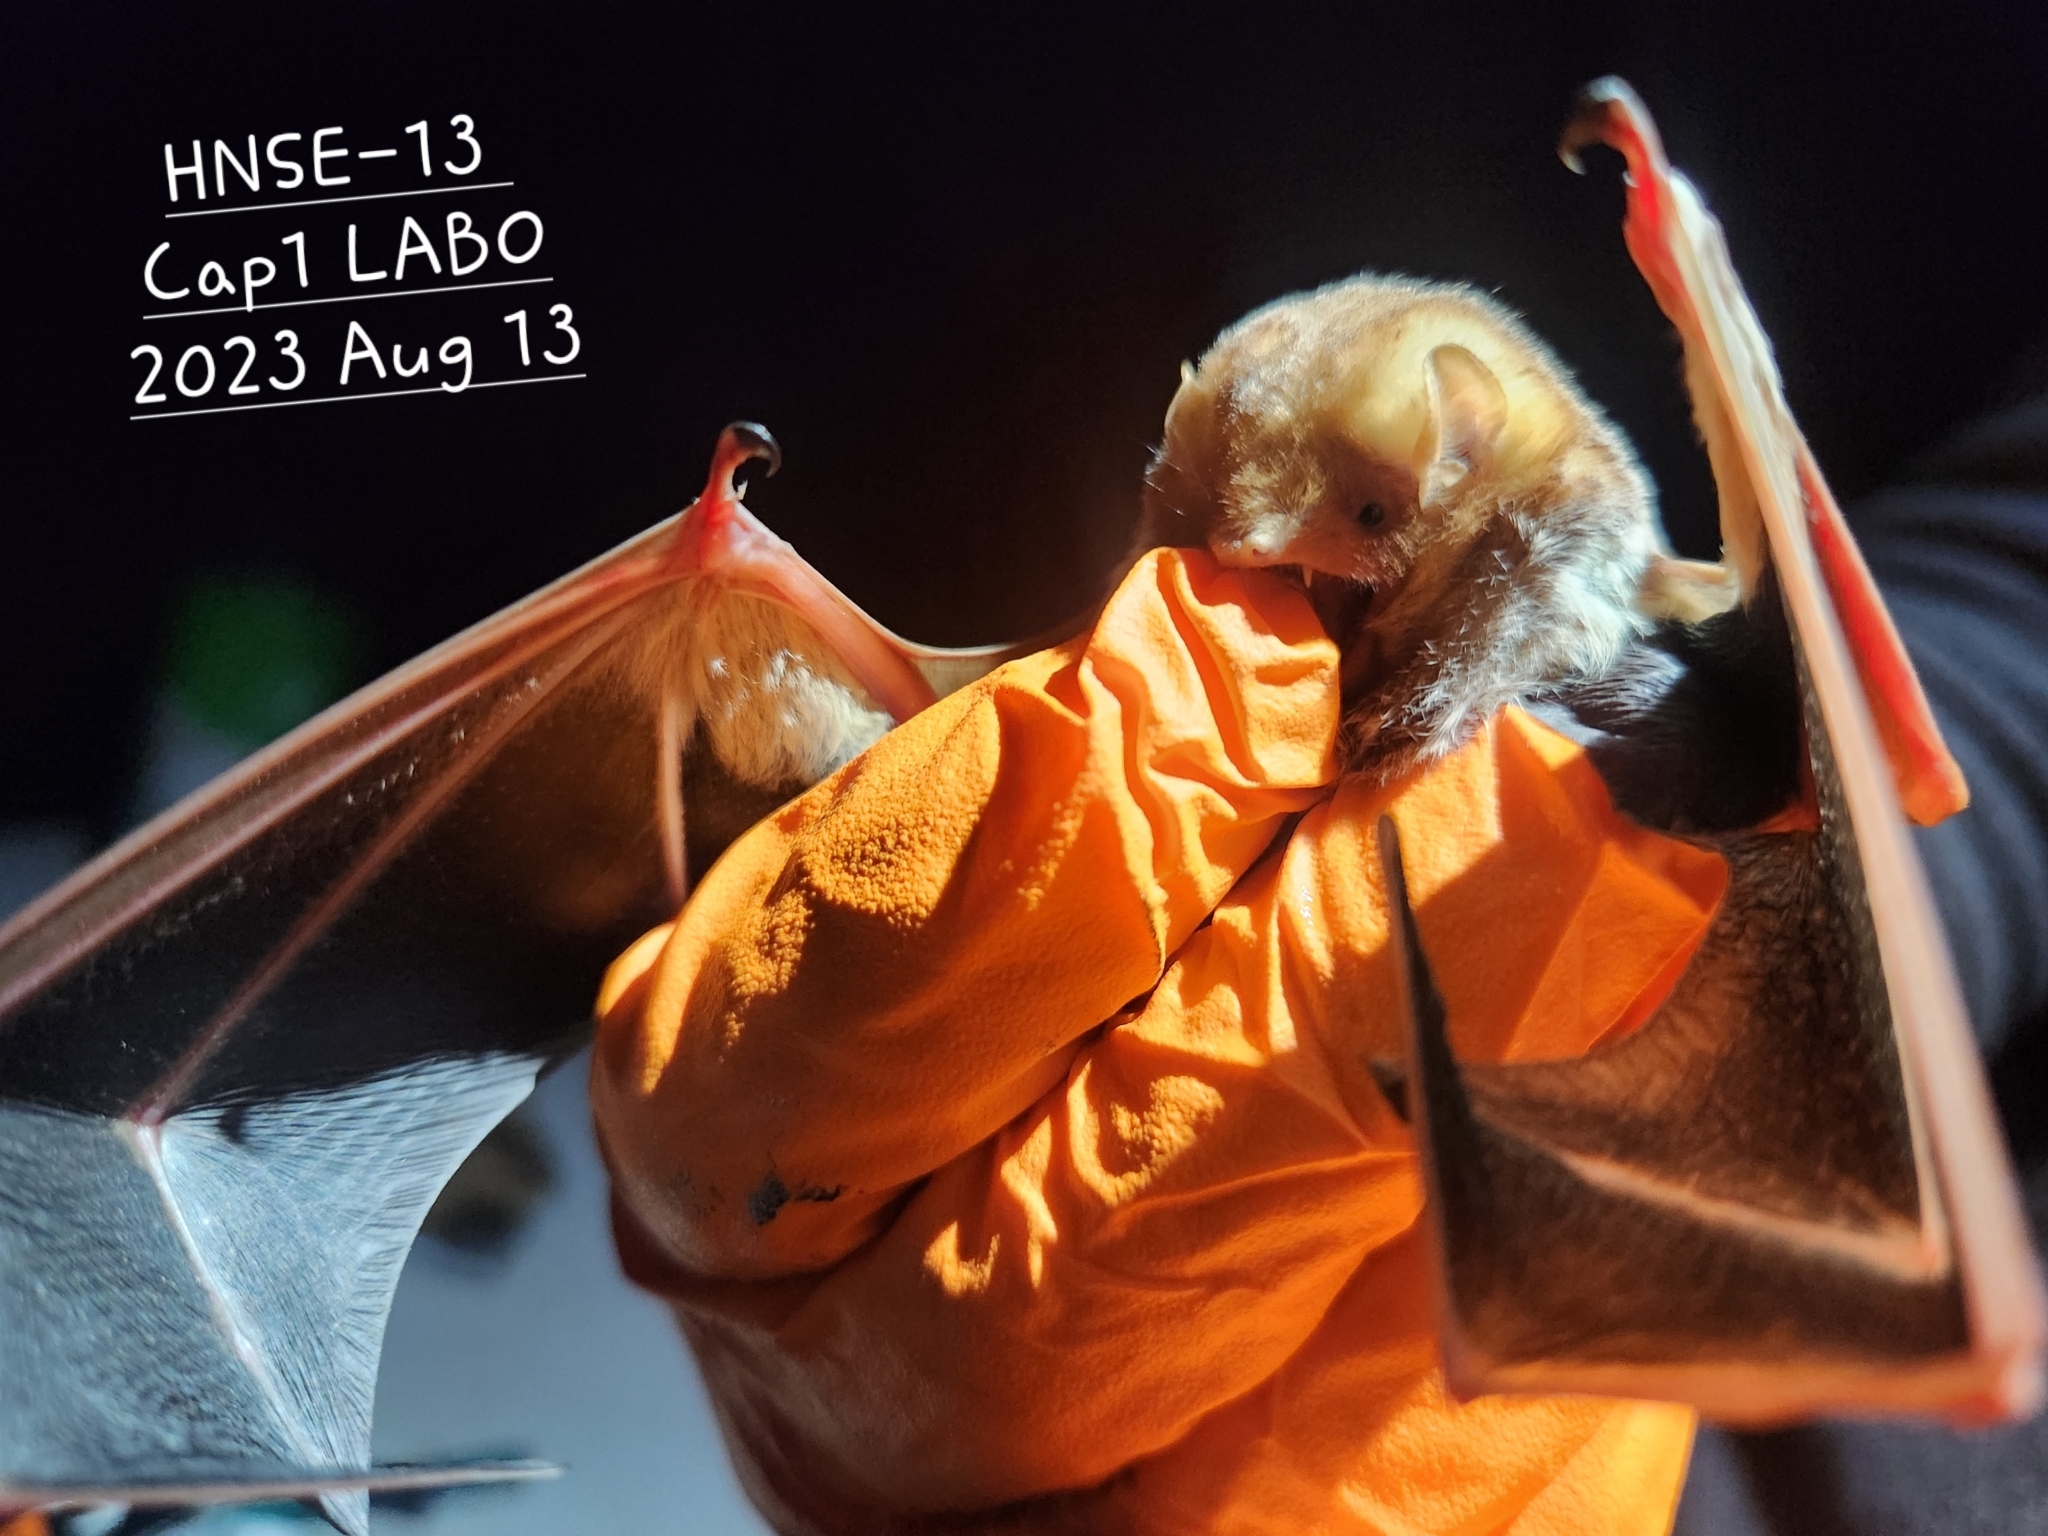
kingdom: Animalia
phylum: Chordata
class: Mammalia
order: Chiroptera
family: Vespertilionidae
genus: Lasiurus
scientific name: Lasiurus borealis
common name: Eastern red bat
